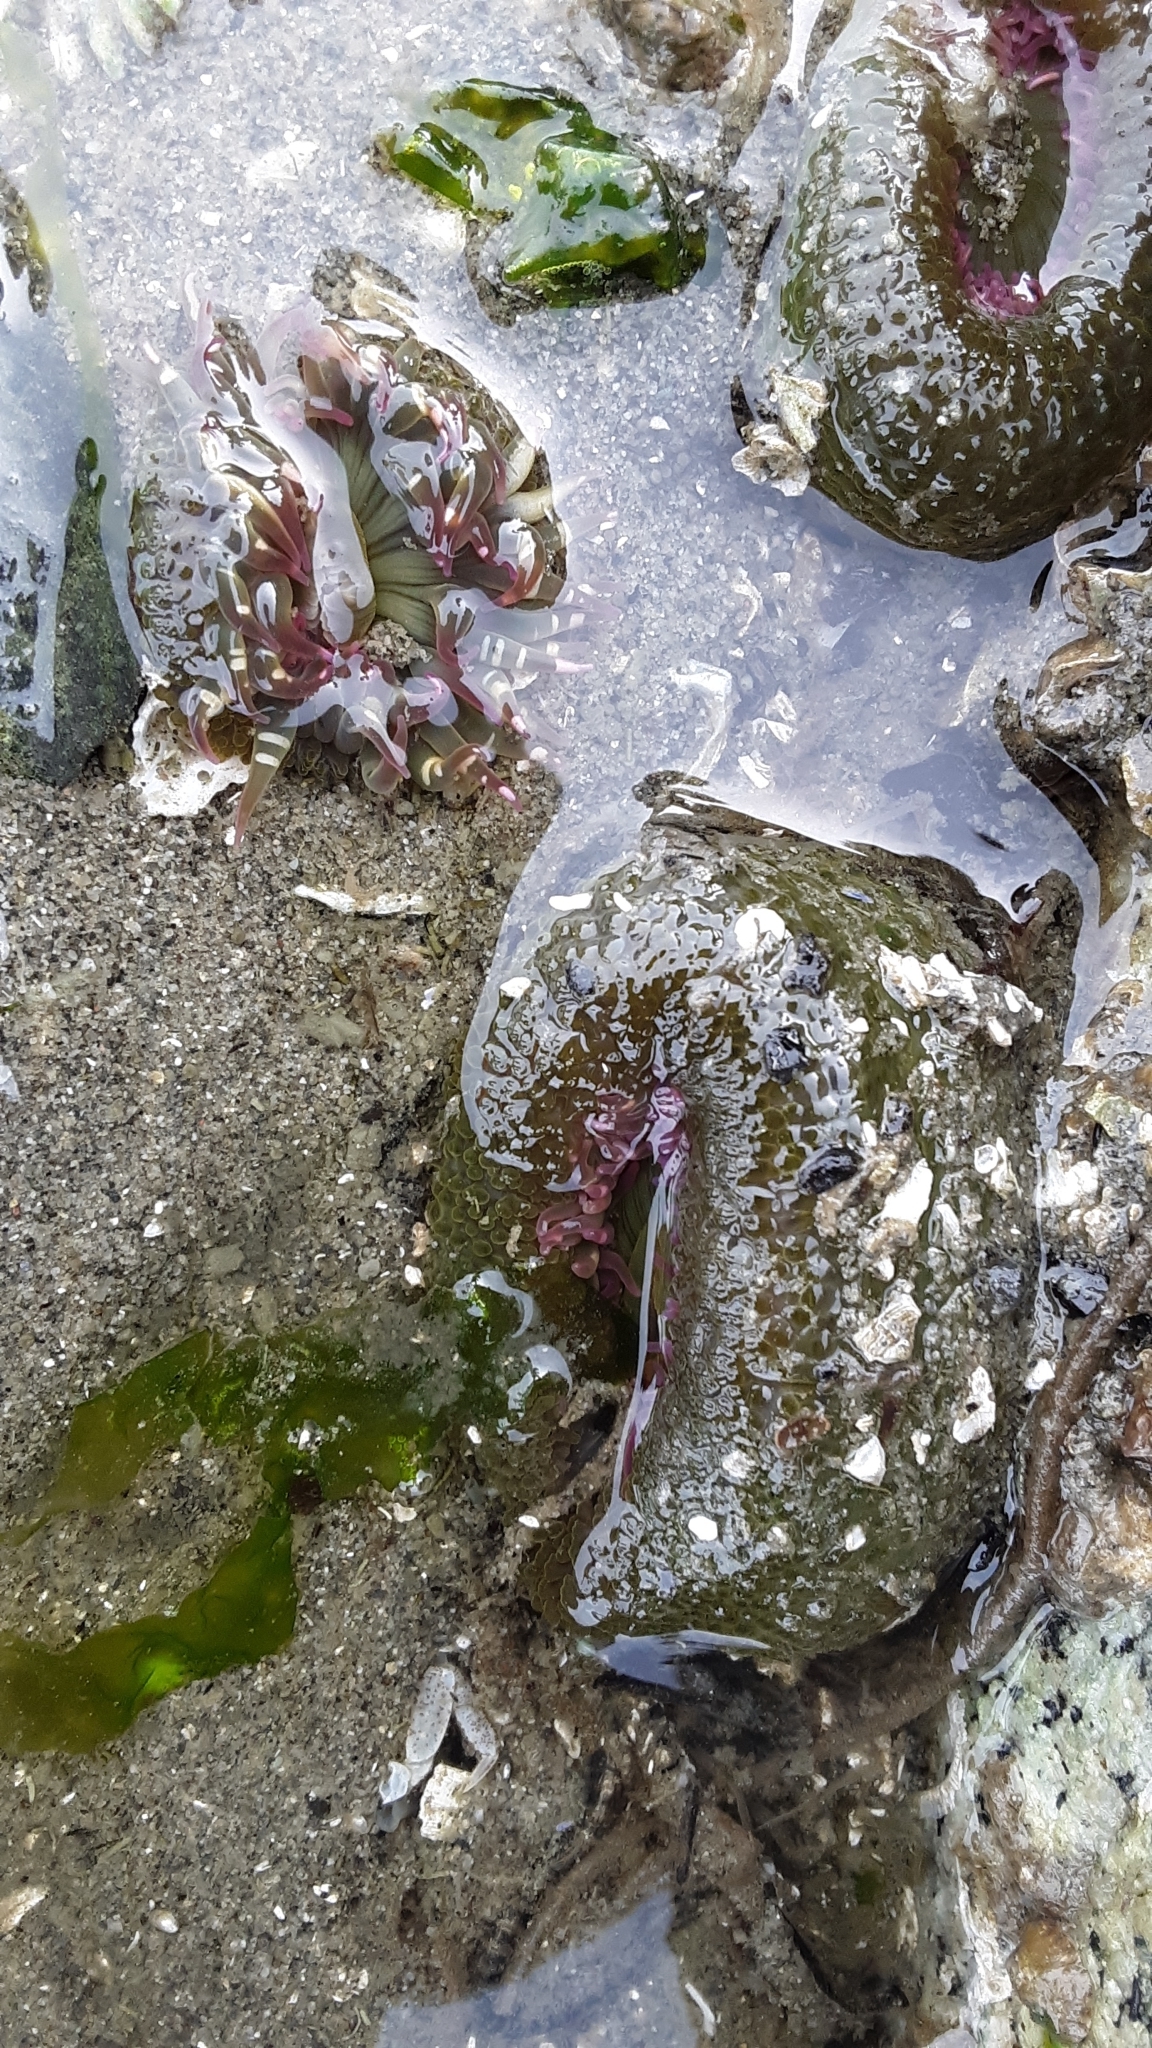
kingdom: Animalia
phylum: Cnidaria
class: Anthozoa
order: Actiniaria
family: Actiniidae
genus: Anthopleura
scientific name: Anthopleura elegantissima
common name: Clonal anemone
